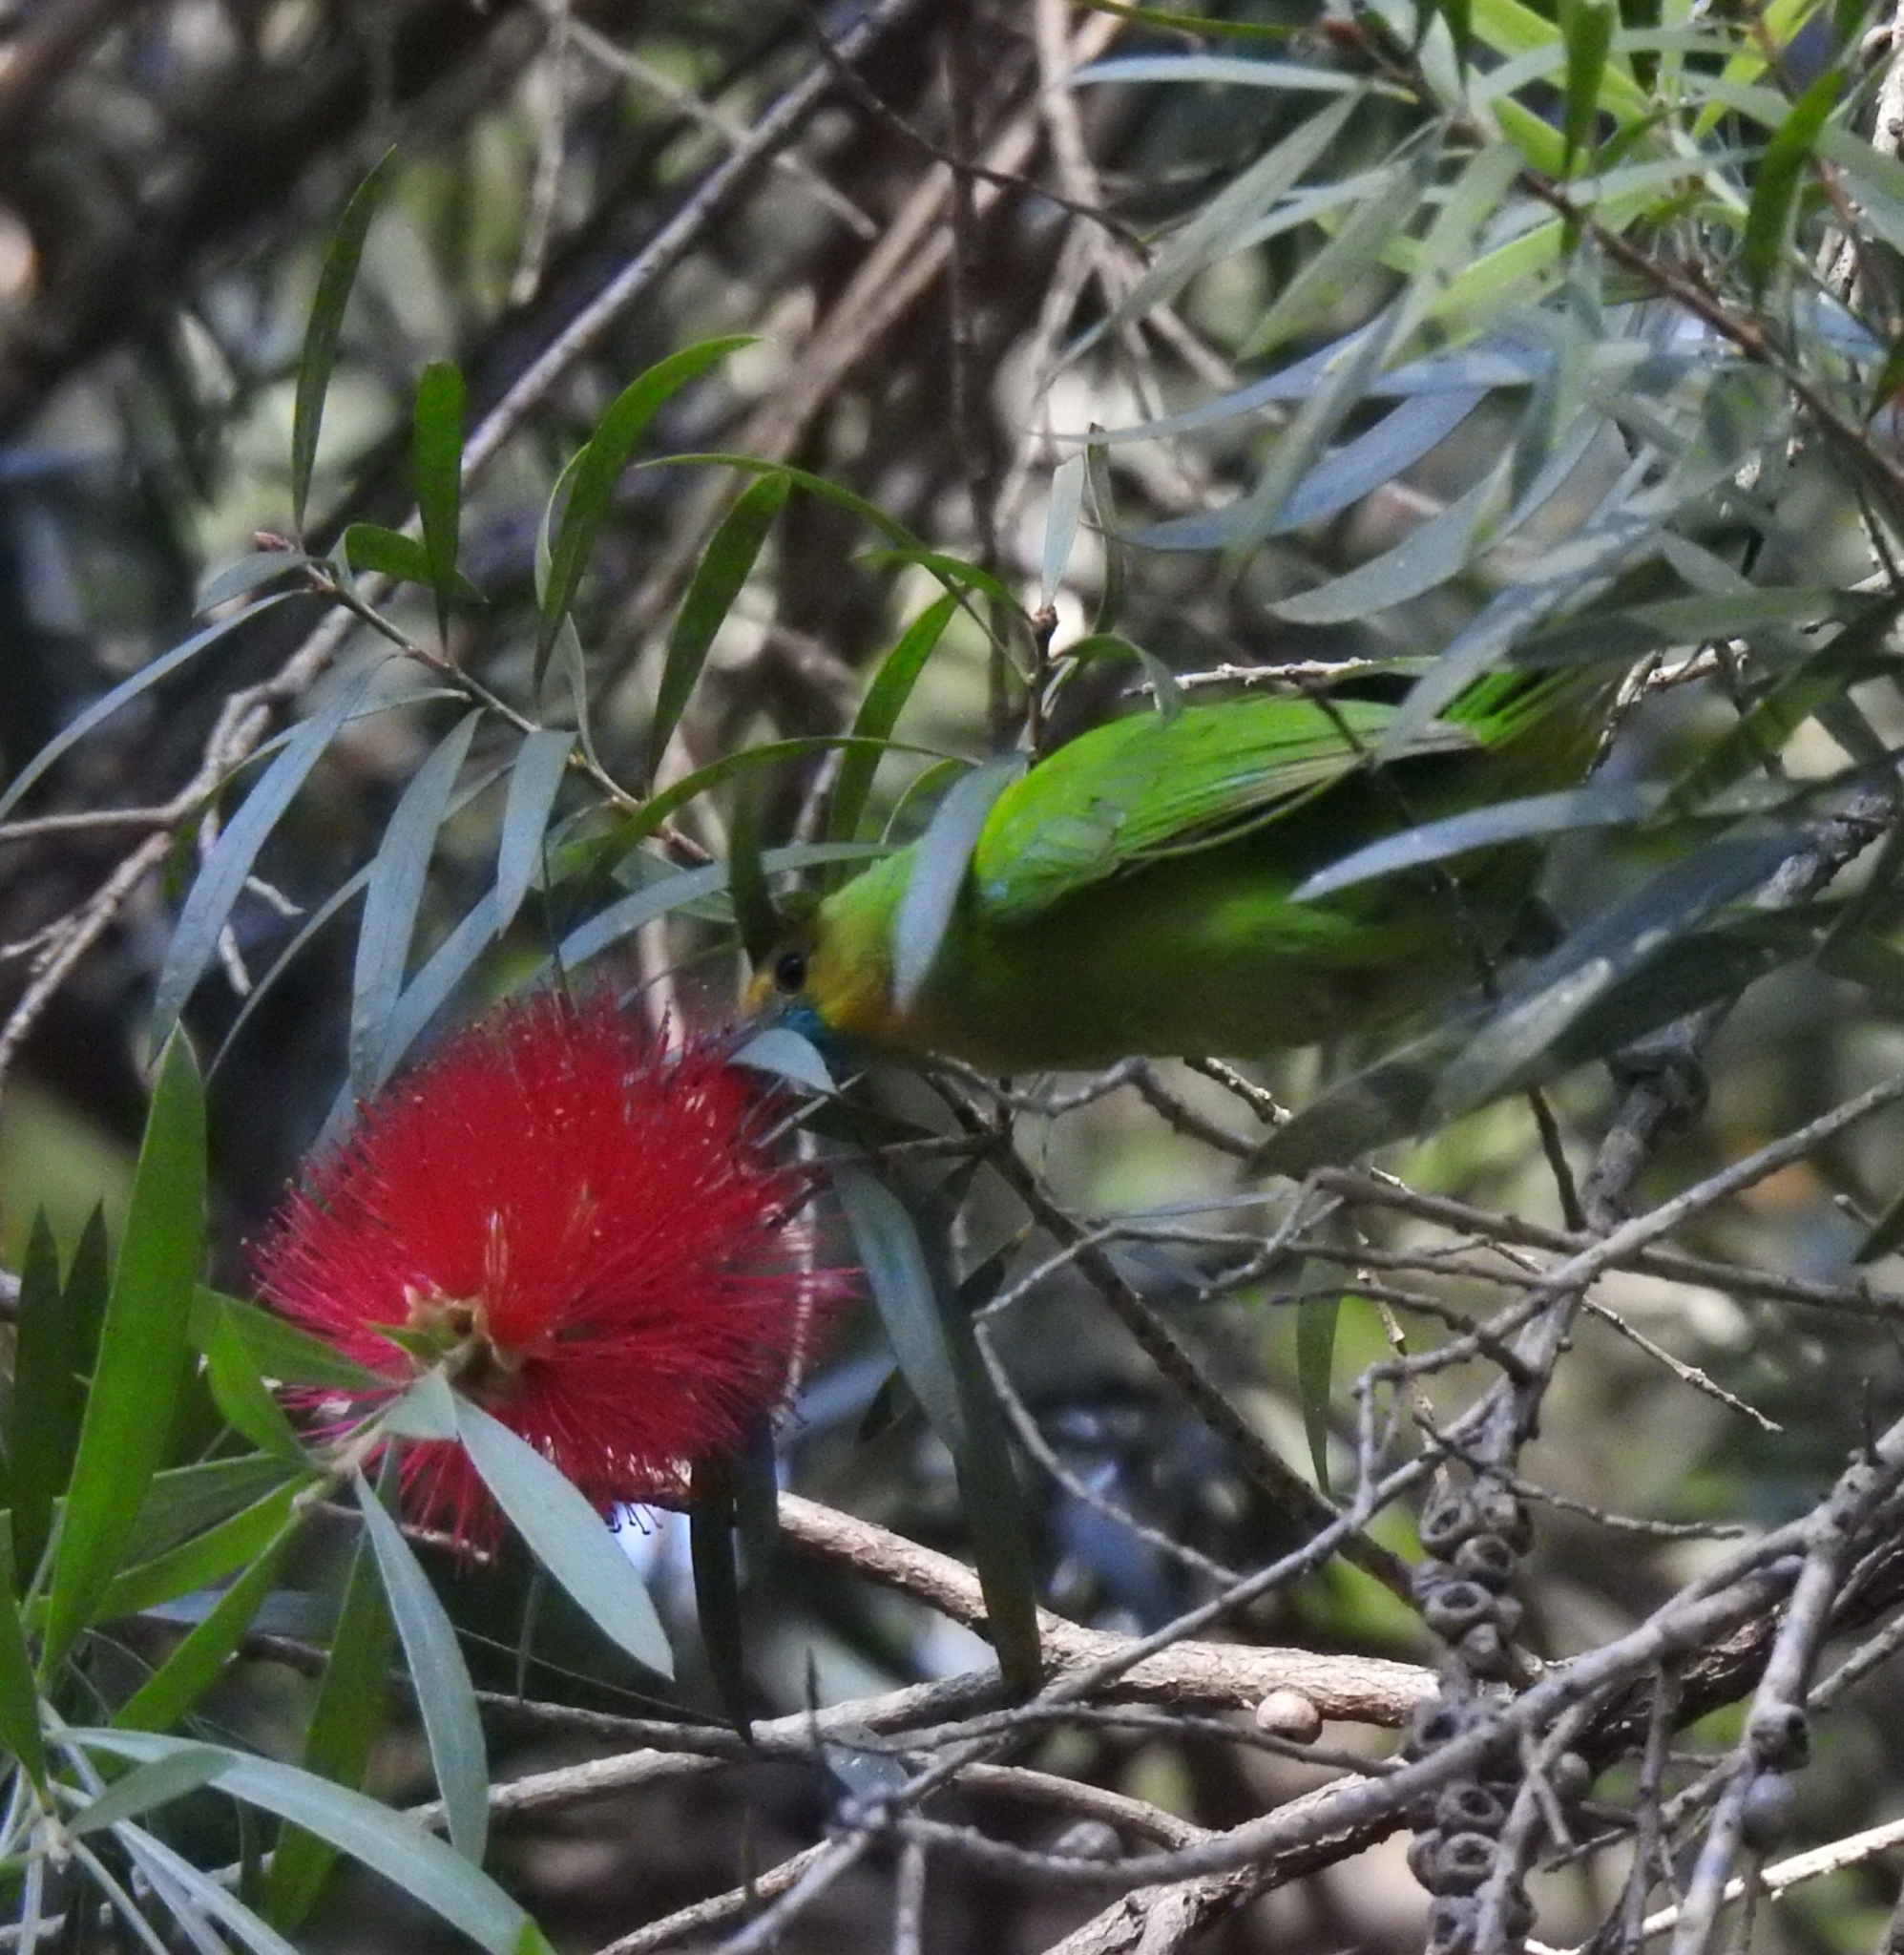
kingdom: Animalia
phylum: Chordata
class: Aves
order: Passeriformes
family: Chloropseidae
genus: Chloropsis
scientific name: Chloropsis jerdoni
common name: Jerdon's leafbird
